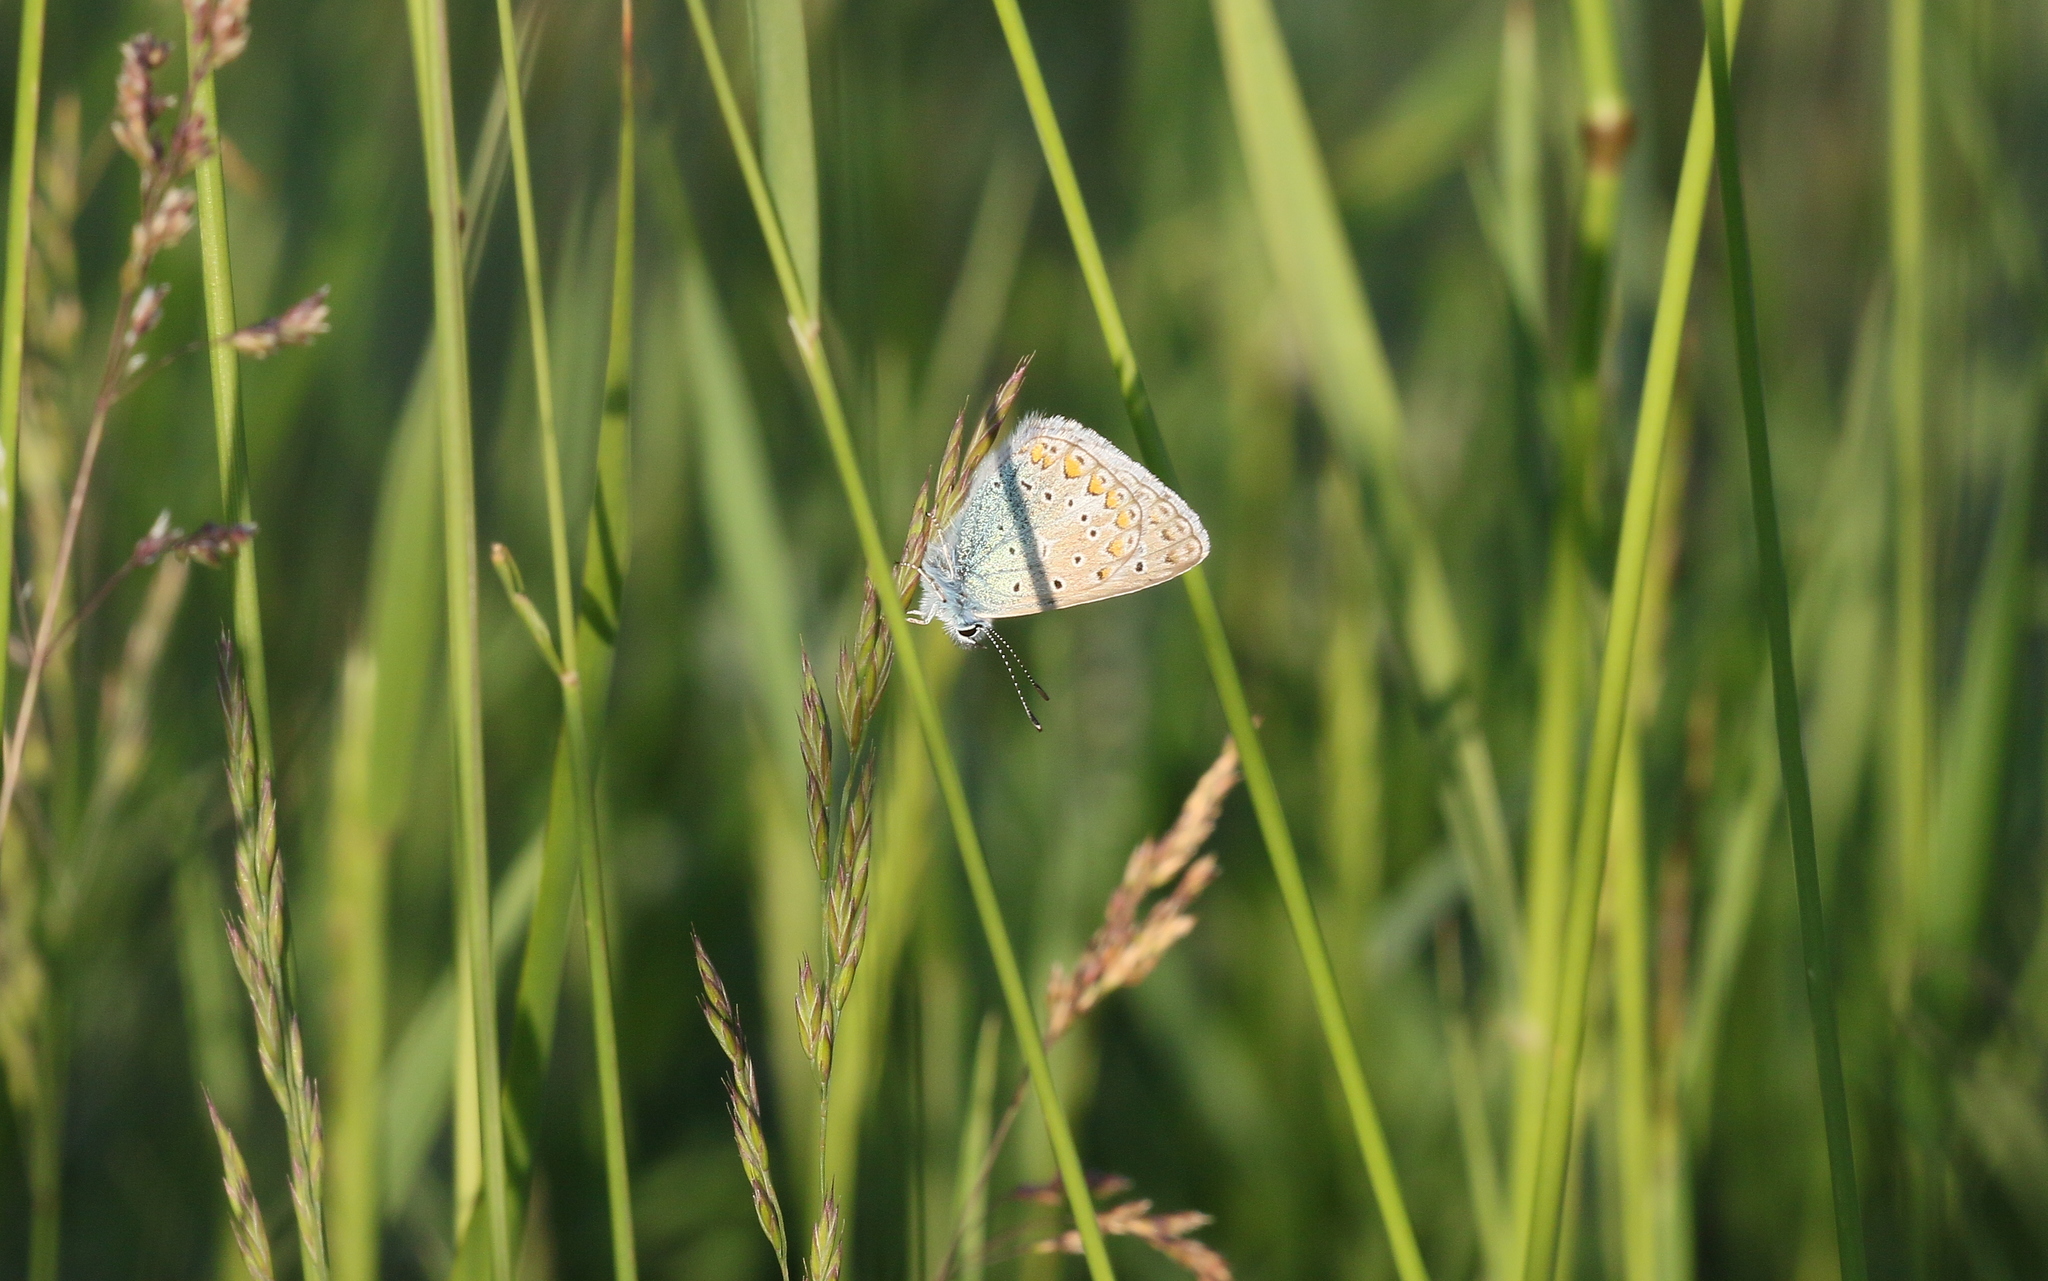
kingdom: Animalia
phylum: Arthropoda
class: Insecta
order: Lepidoptera
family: Lycaenidae
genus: Polyommatus
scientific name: Polyommatus icarus
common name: Common blue
